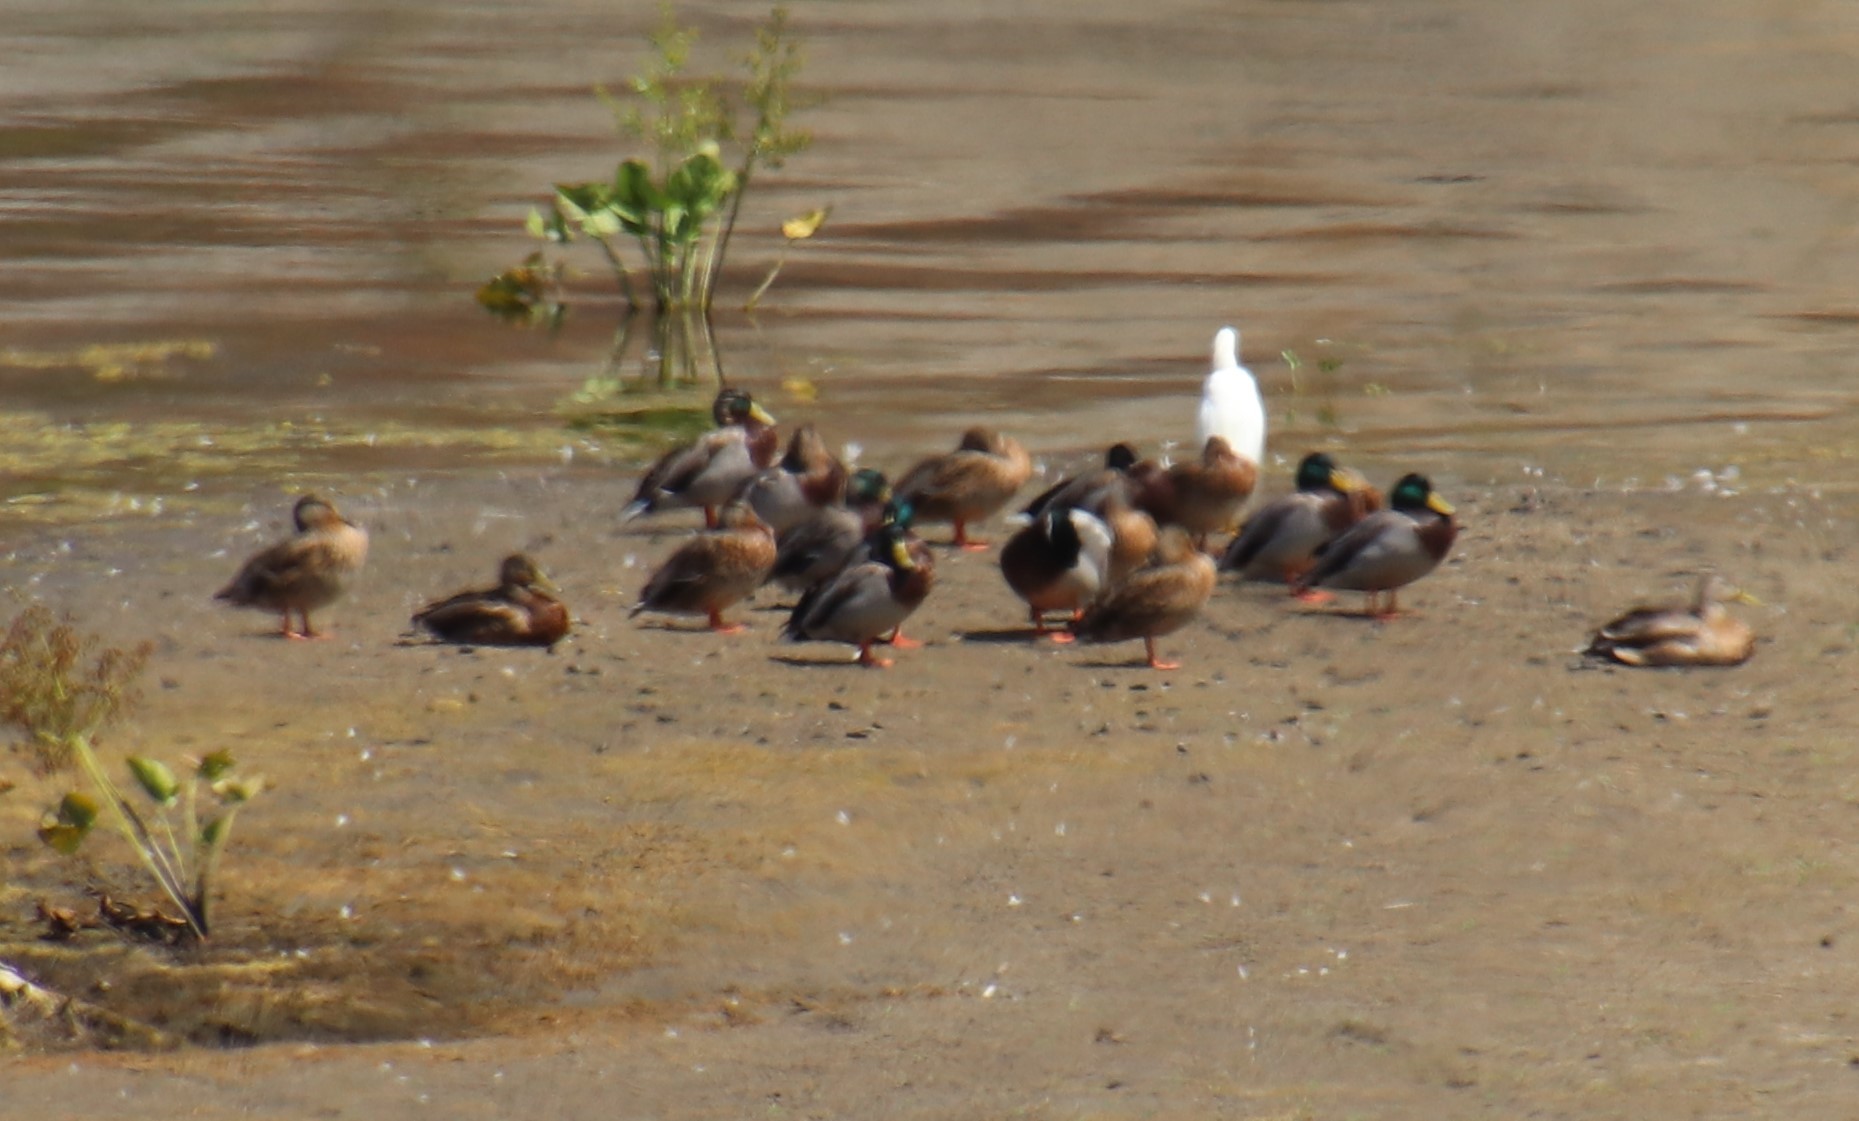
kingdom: Animalia
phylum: Chordata
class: Aves
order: Anseriformes
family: Anatidae
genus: Anas
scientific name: Anas platyrhynchos
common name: Mallard
